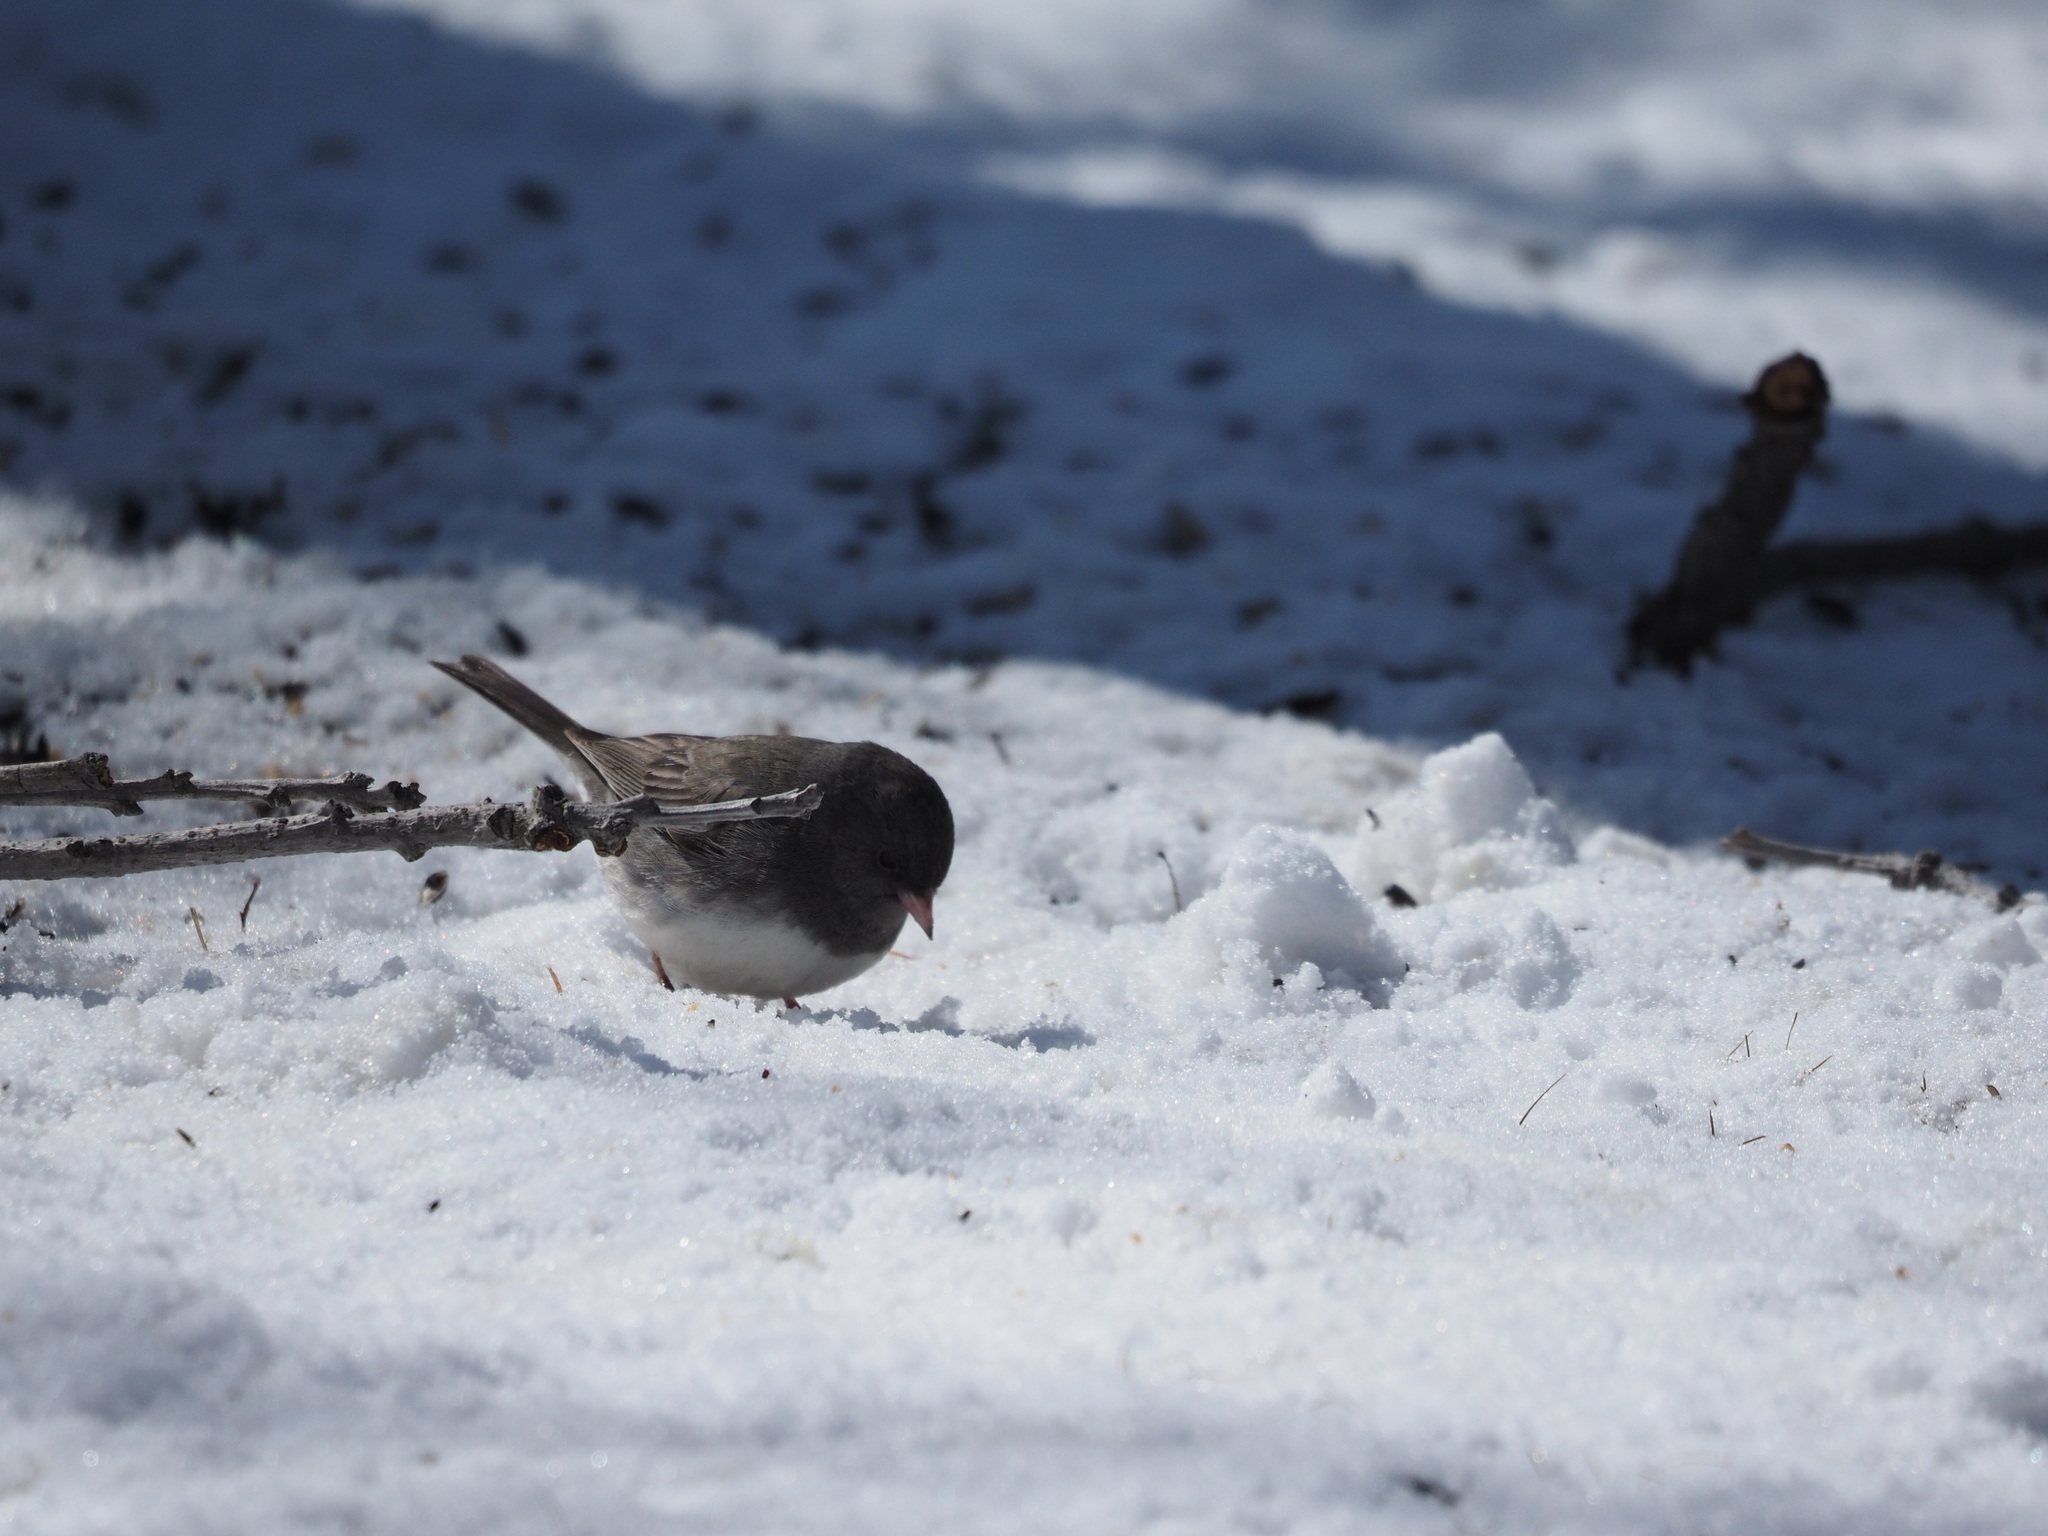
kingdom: Animalia
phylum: Chordata
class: Aves
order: Passeriformes
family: Passerellidae
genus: Junco
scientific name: Junco hyemalis
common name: Dark-eyed junco
